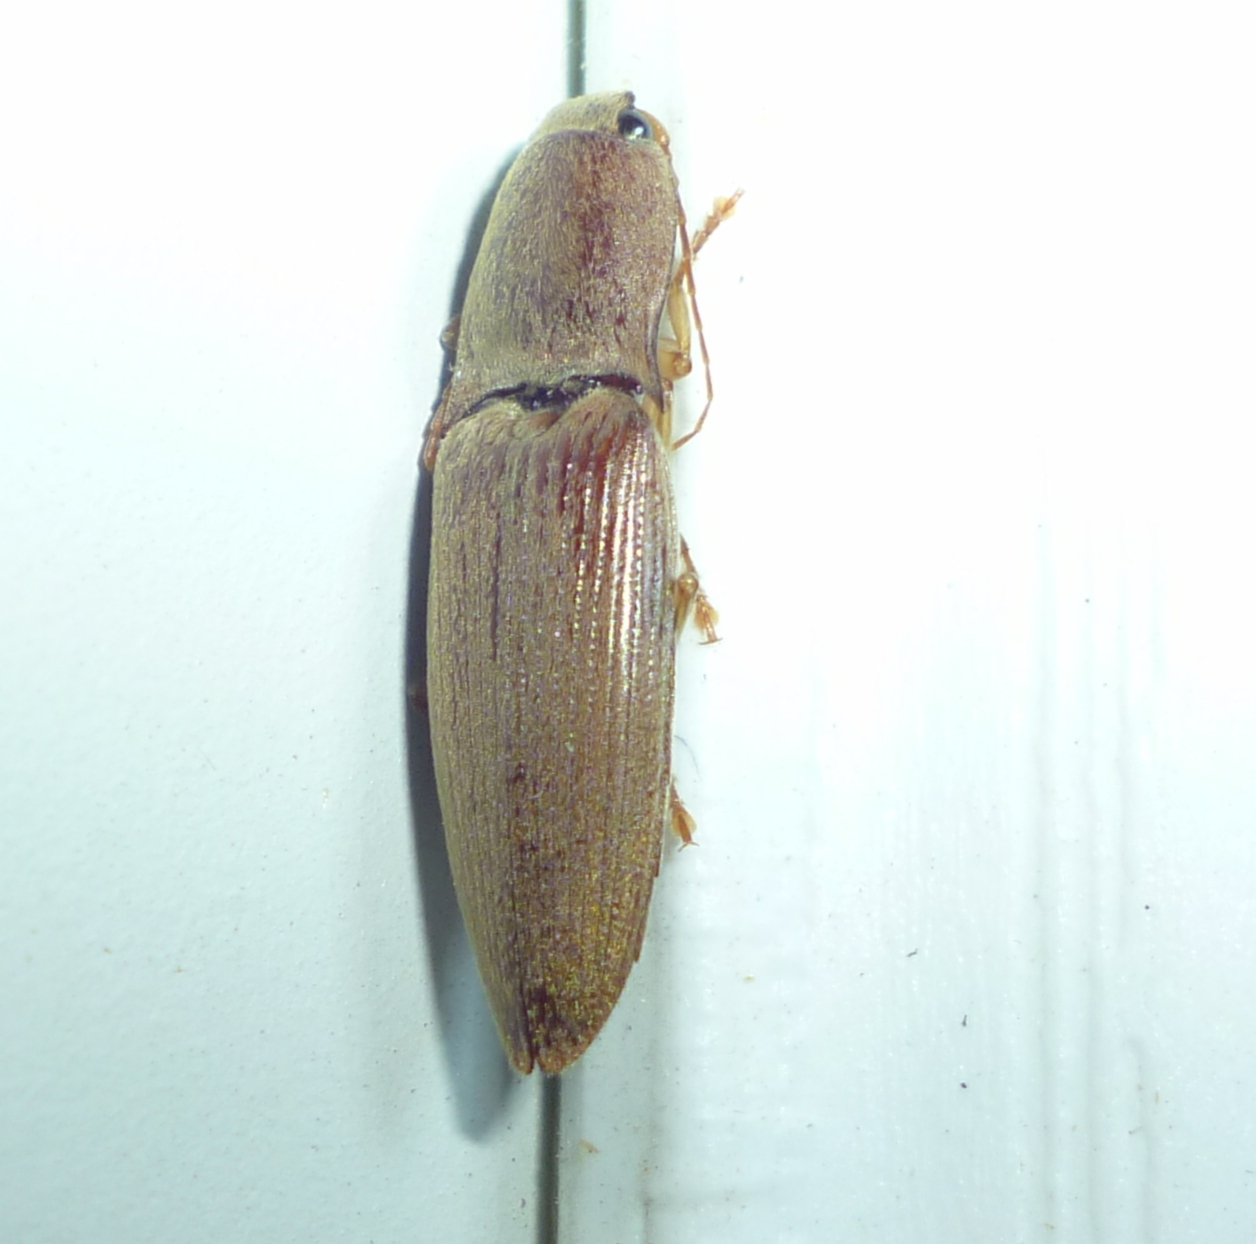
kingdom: Animalia
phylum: Arthropoda
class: Insecta
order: Coleoptera
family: Elateridae
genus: Monocrepidius
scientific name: Monocrepidius lividus
